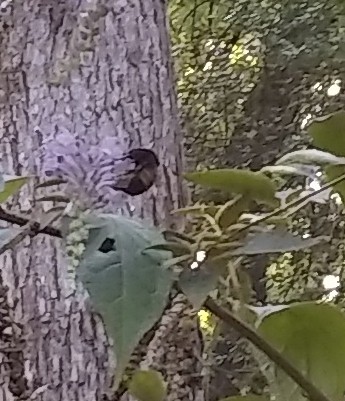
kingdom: Animalia
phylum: Arthropoda
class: Insecta
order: Hymenoptera
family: Apidae
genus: Bombus
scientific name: Bombus pensylvanicus
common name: Bumble bee
